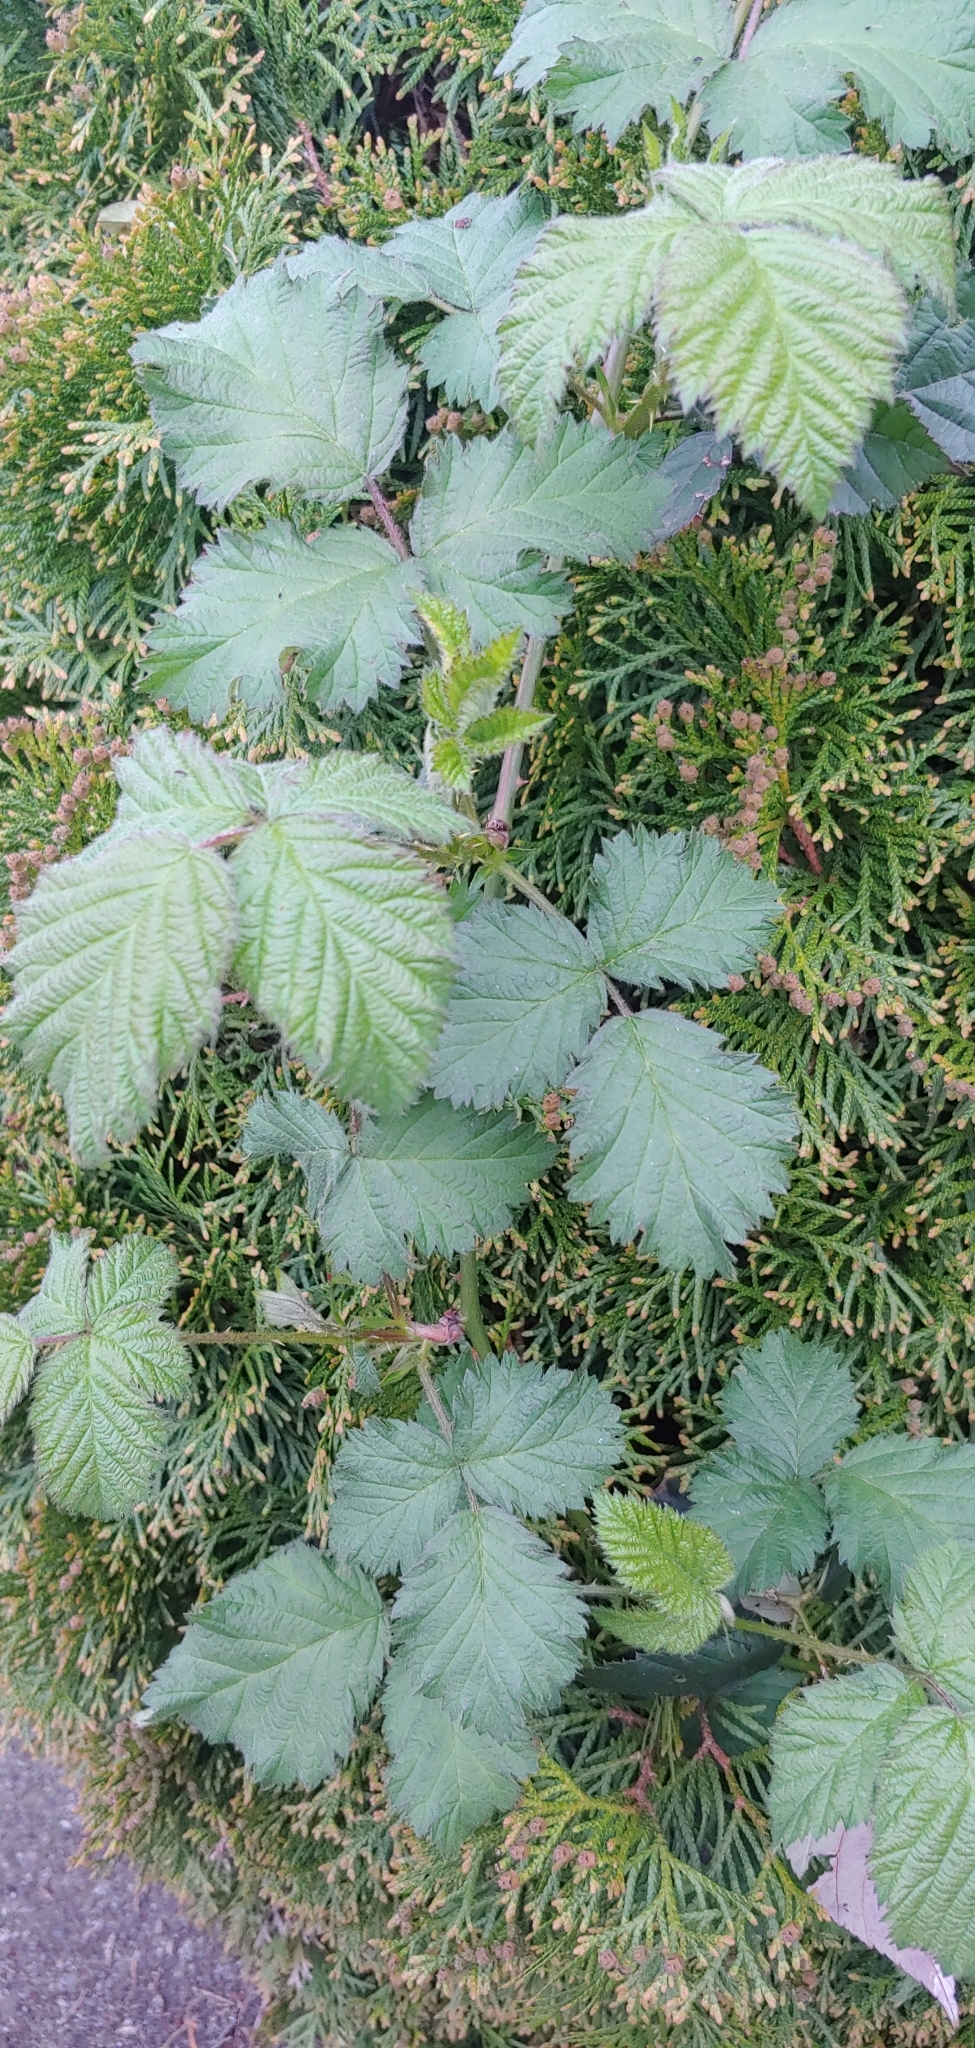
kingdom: Plantae
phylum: Tracheophyta
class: Magnoliopsida
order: Rosales
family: Rosaceae
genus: Rubus
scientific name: Rubus armeniacus
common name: Himalayan blackberry
